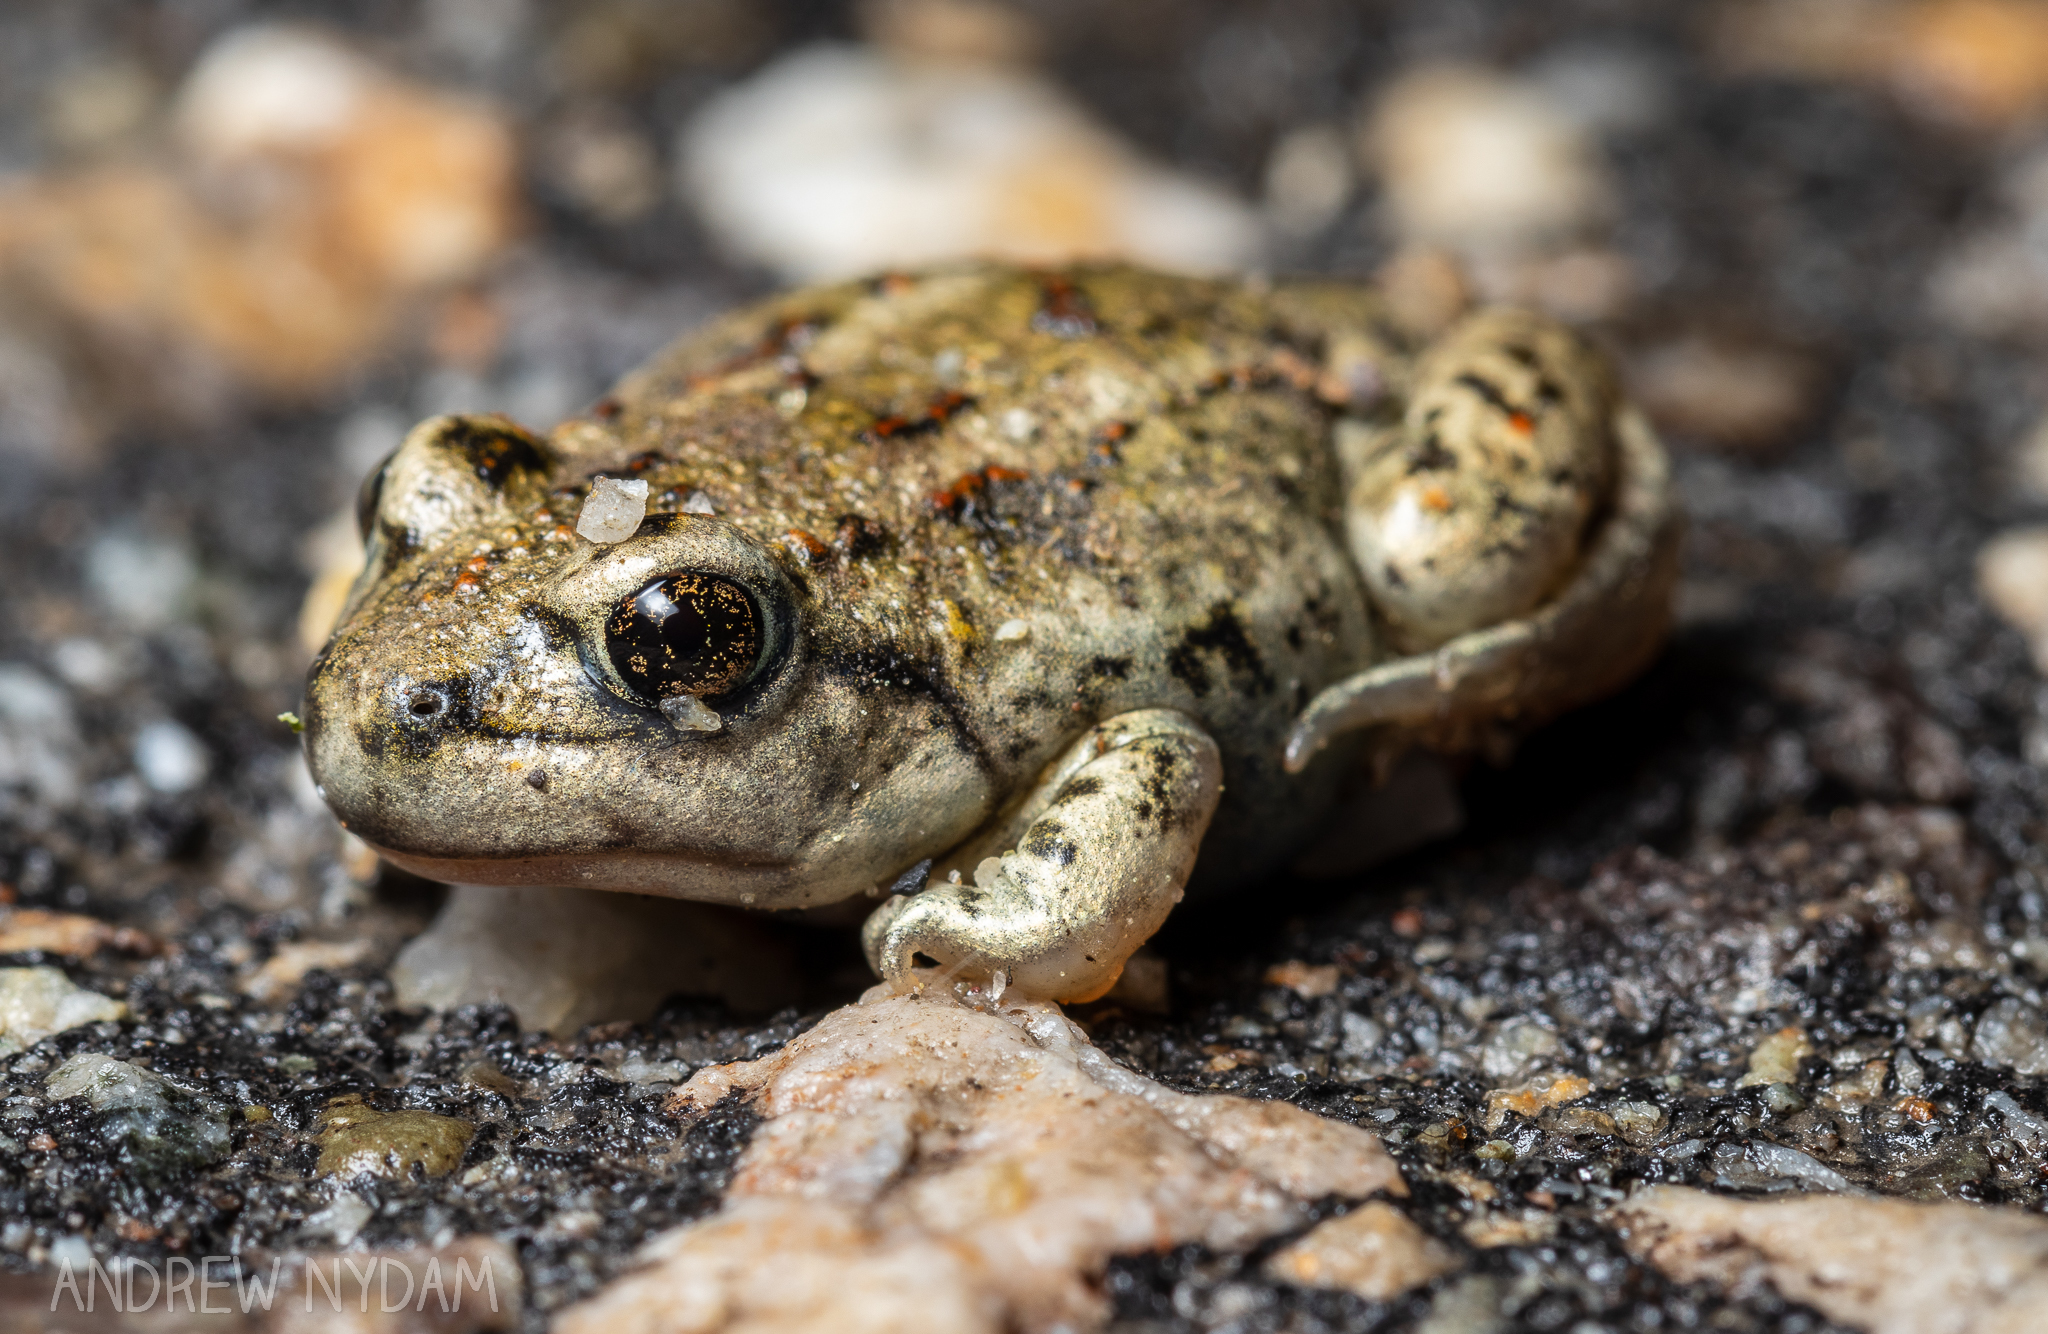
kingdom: Animalia
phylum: Chordata
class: Amphibia
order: Anura
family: Scaphiopodidae
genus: Spea
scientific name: Spea intermontana
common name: Great basin spadefoot
